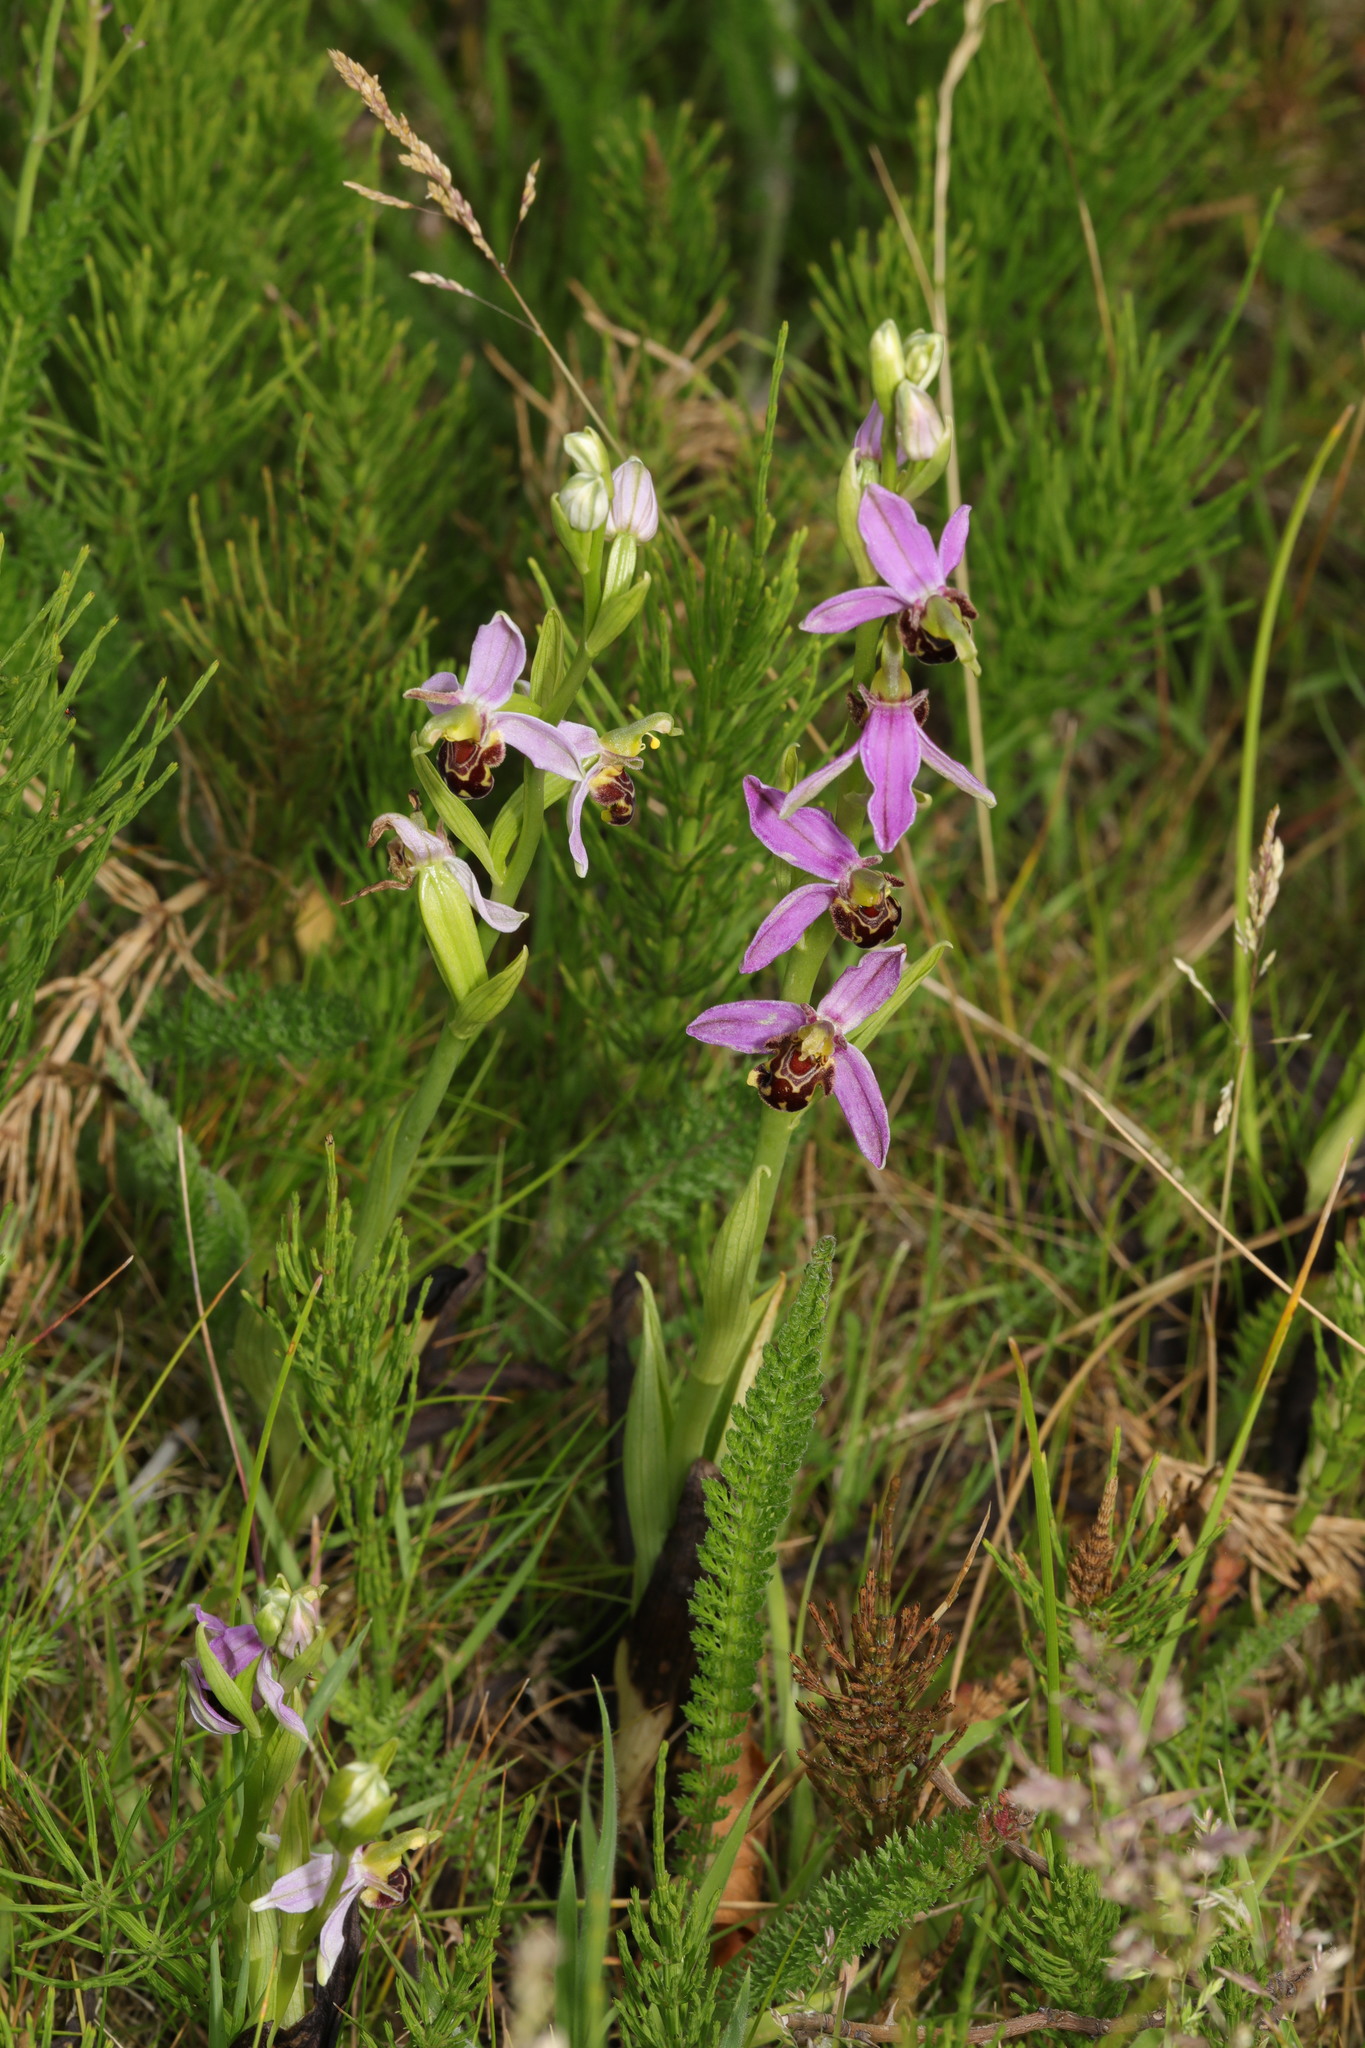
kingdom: Plantae
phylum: Tracheophyta
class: Liliopsida
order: Asparagales
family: Orchidaceae
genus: Ophrys
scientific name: Ophrys apifera
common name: Bee orchid
